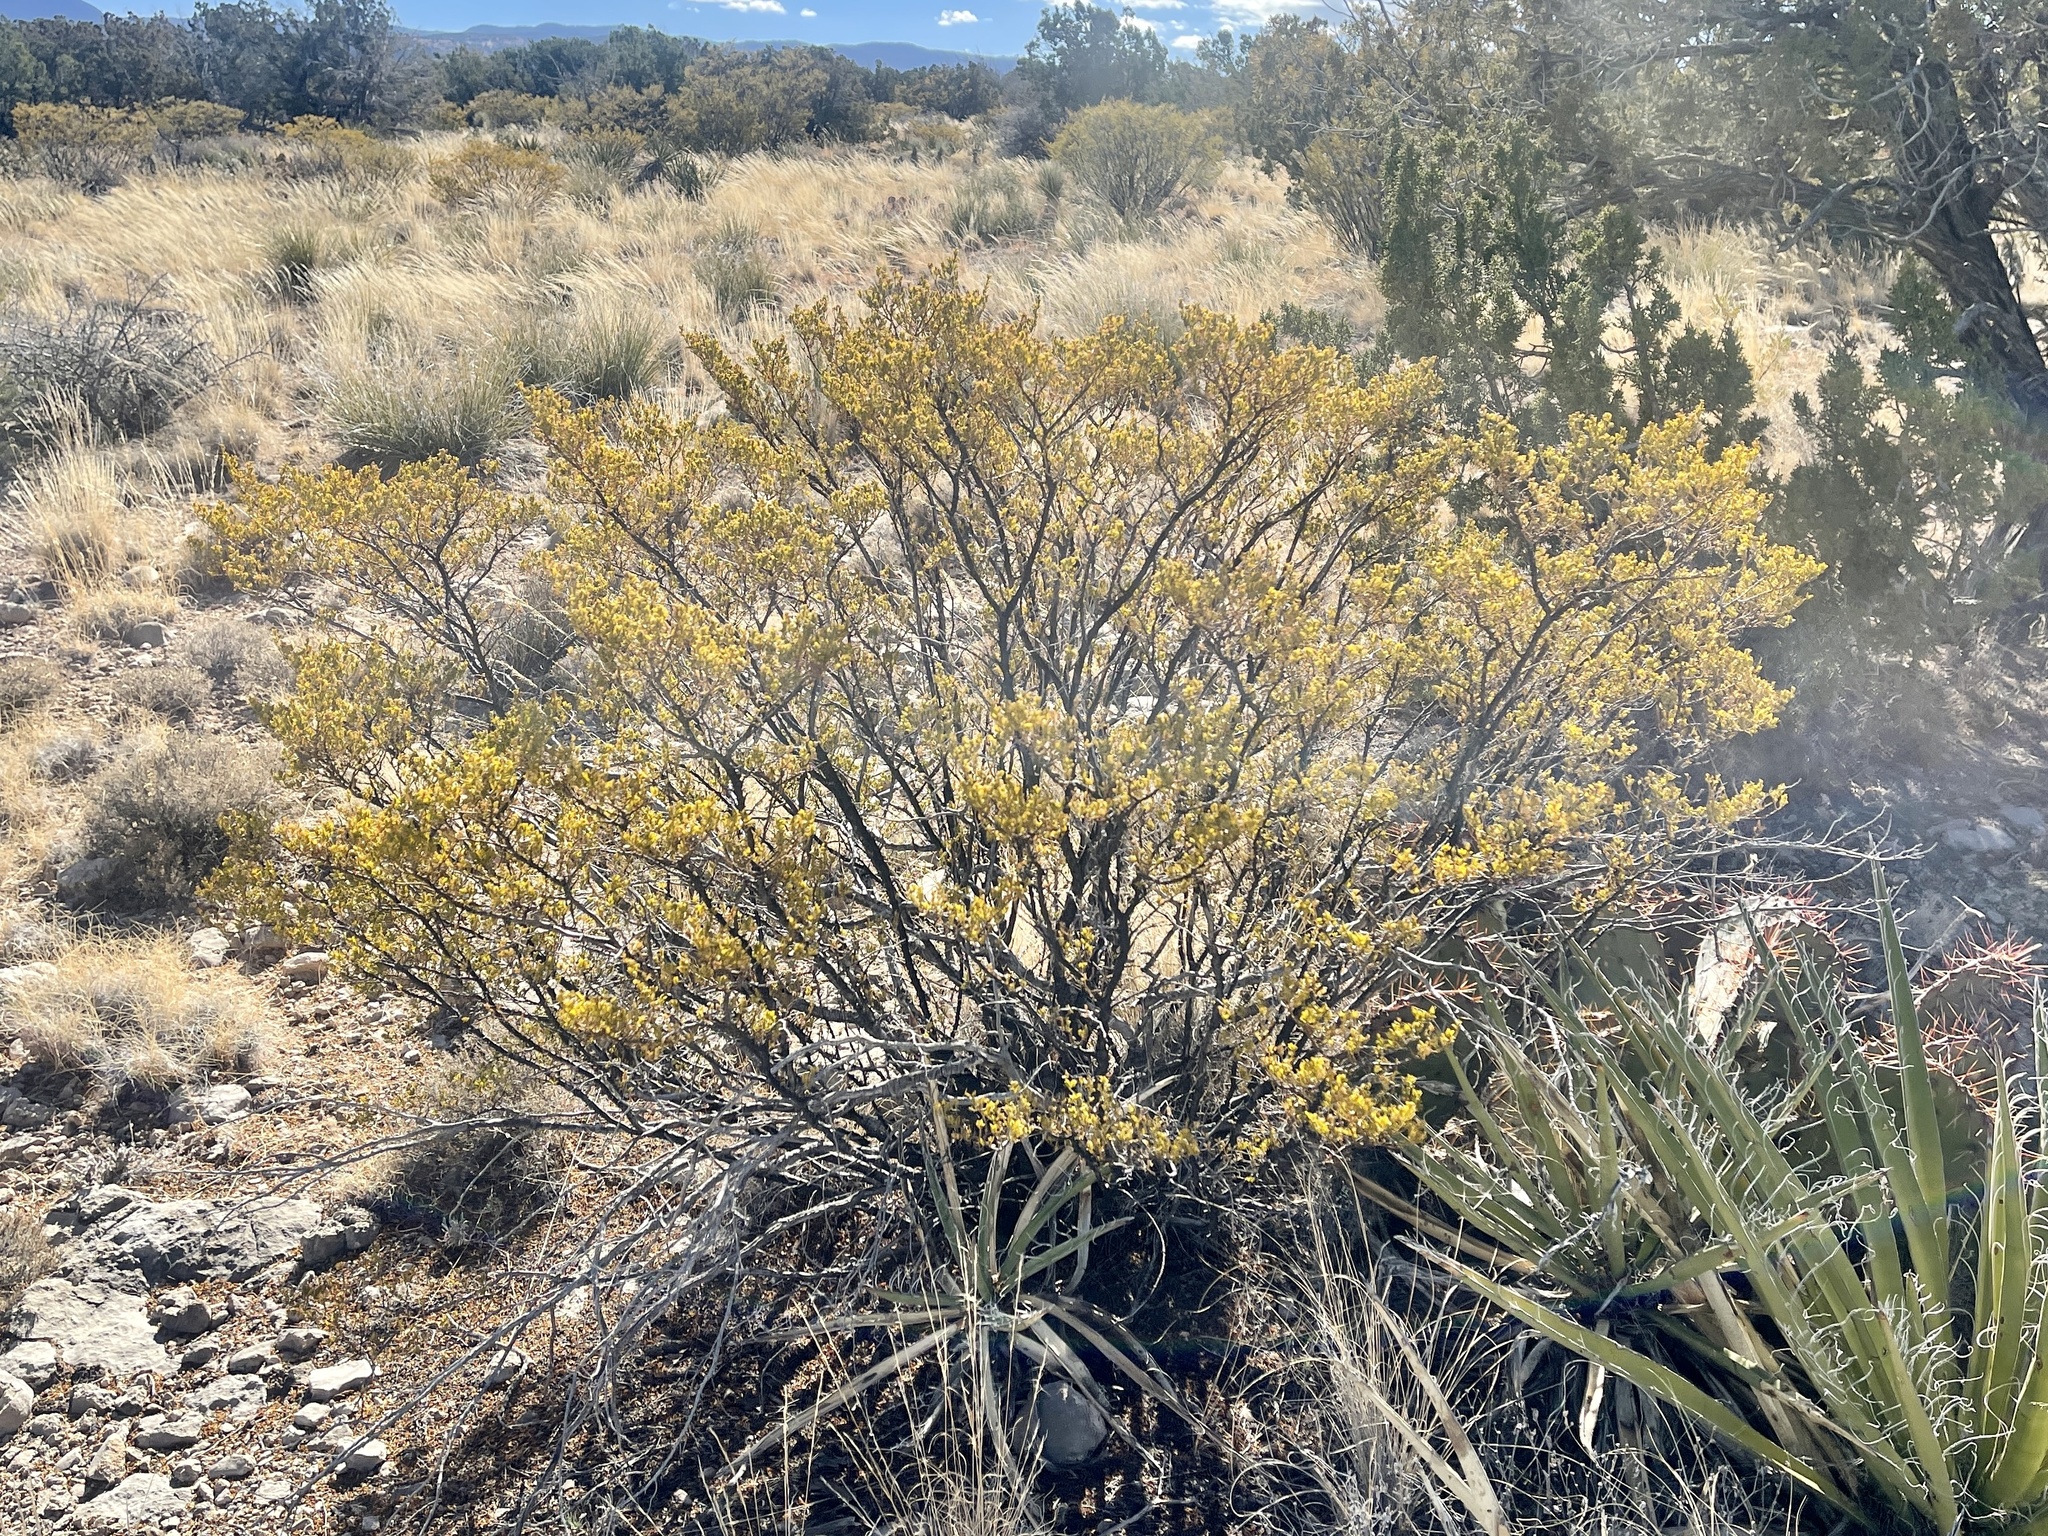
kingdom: Plantae
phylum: Tracheophyta
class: Magnoliopsida
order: Zygophyllales
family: Zygophyllaceae
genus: Larrea
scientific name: Larrea tridentata
